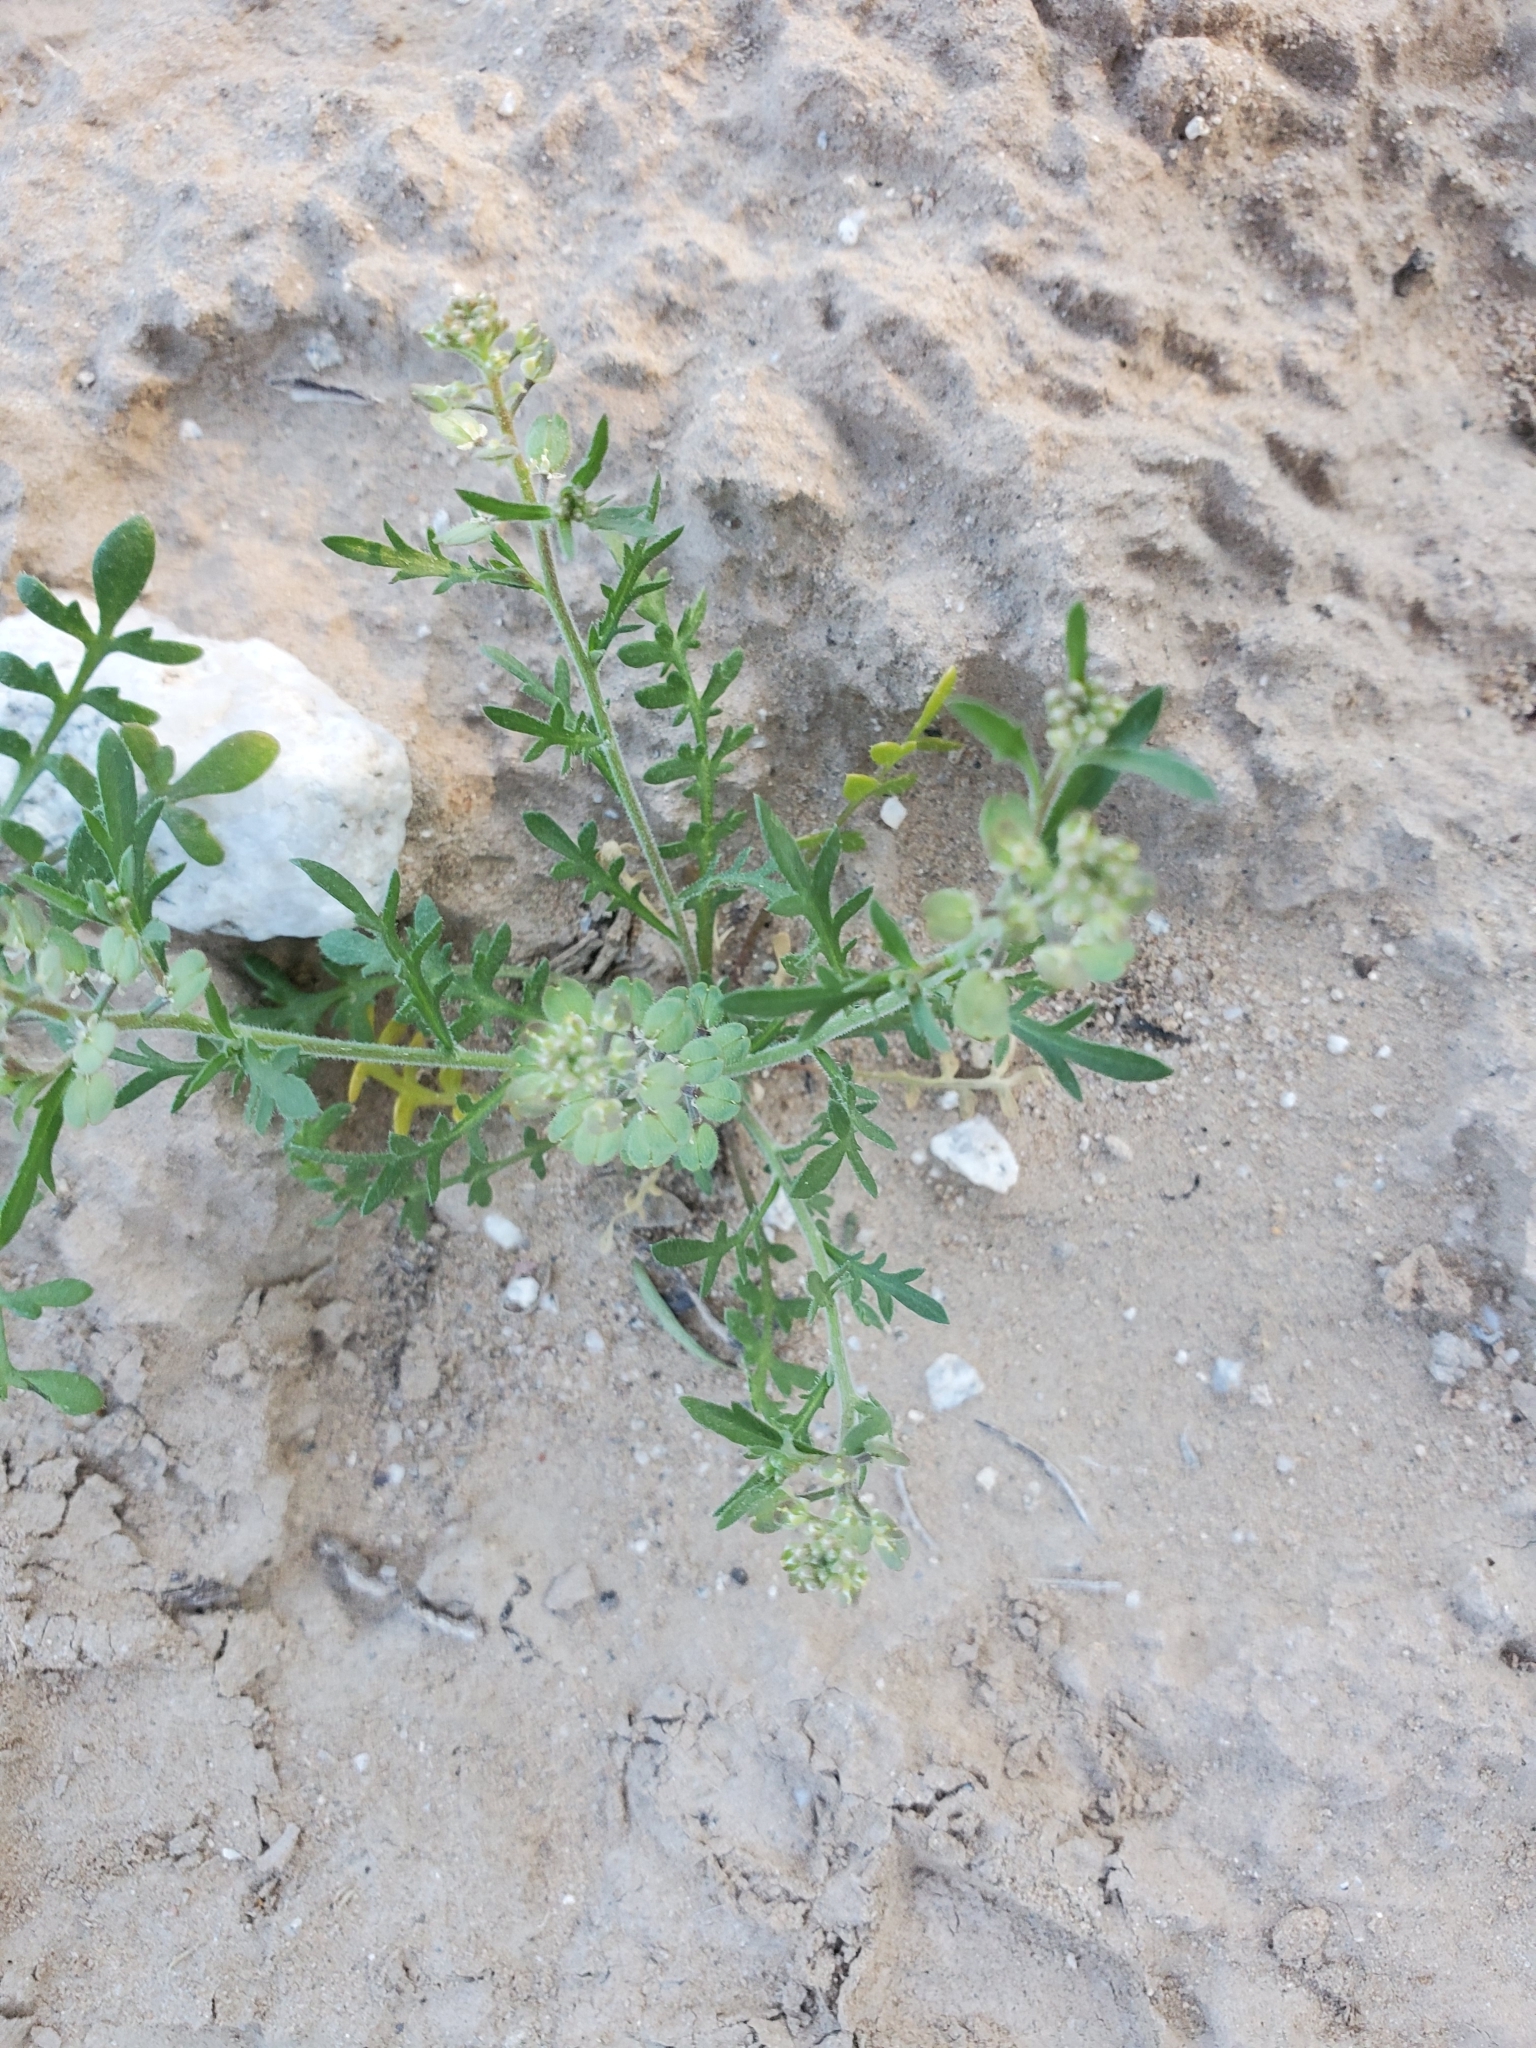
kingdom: Plantae
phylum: Tracheophyta
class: Magnoliopsida
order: Brassicales
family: Brassicaceae
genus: Lepidium
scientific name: Lepidium lasiocarpum
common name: Hairy-pod pepperwort
